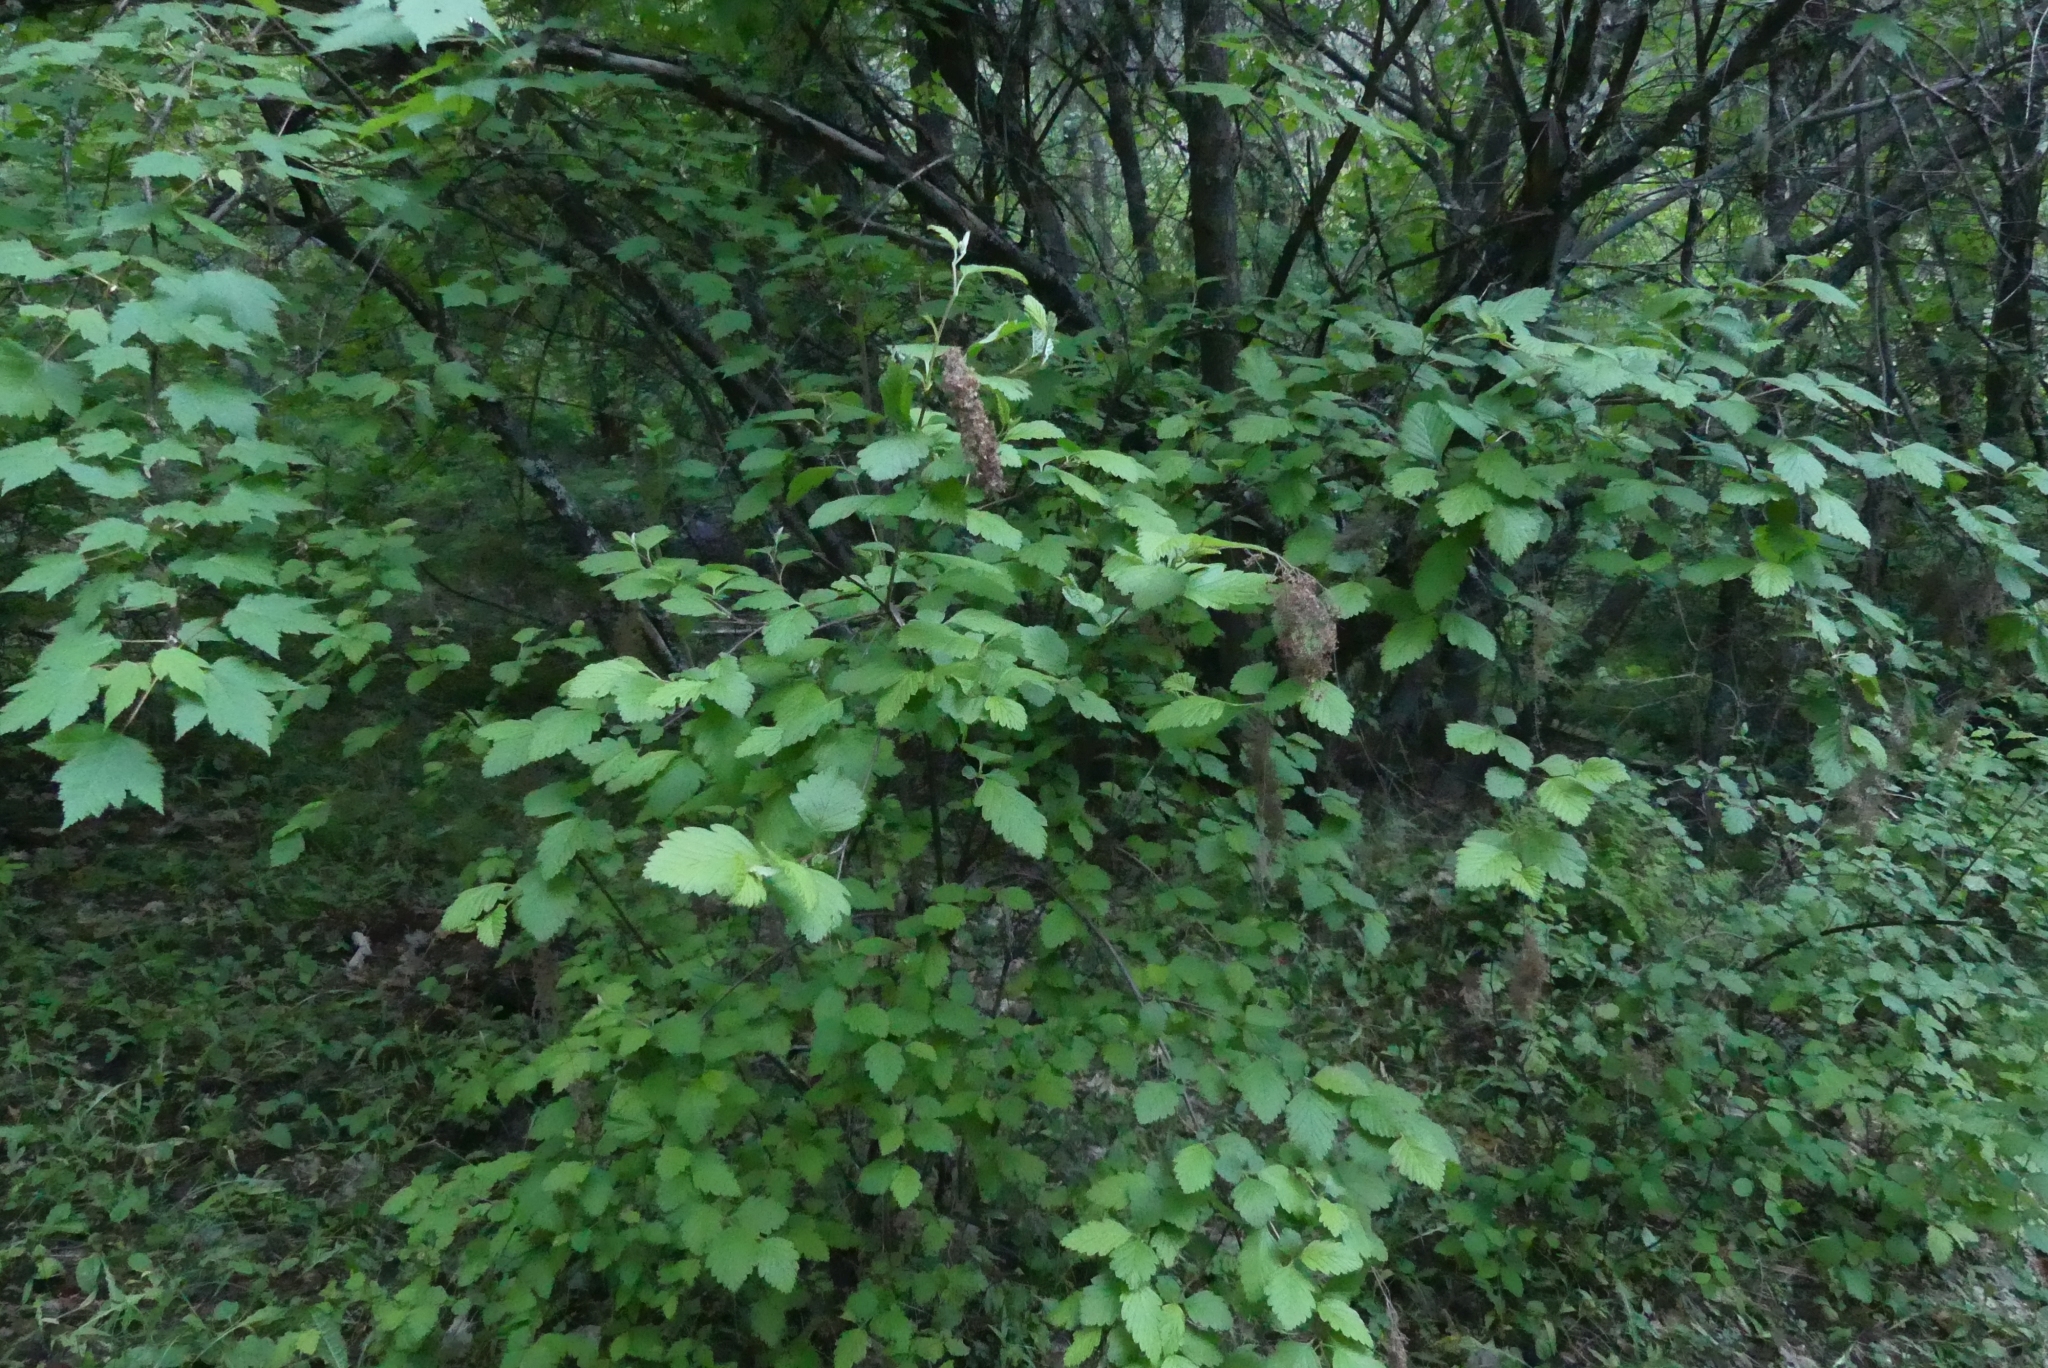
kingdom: Plantae
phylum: Tracheophyta
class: Magnoliopsida
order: Rosales
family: Rosaceae
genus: Holodiscus
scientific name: Holodiscus discolor
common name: Oceanspray
